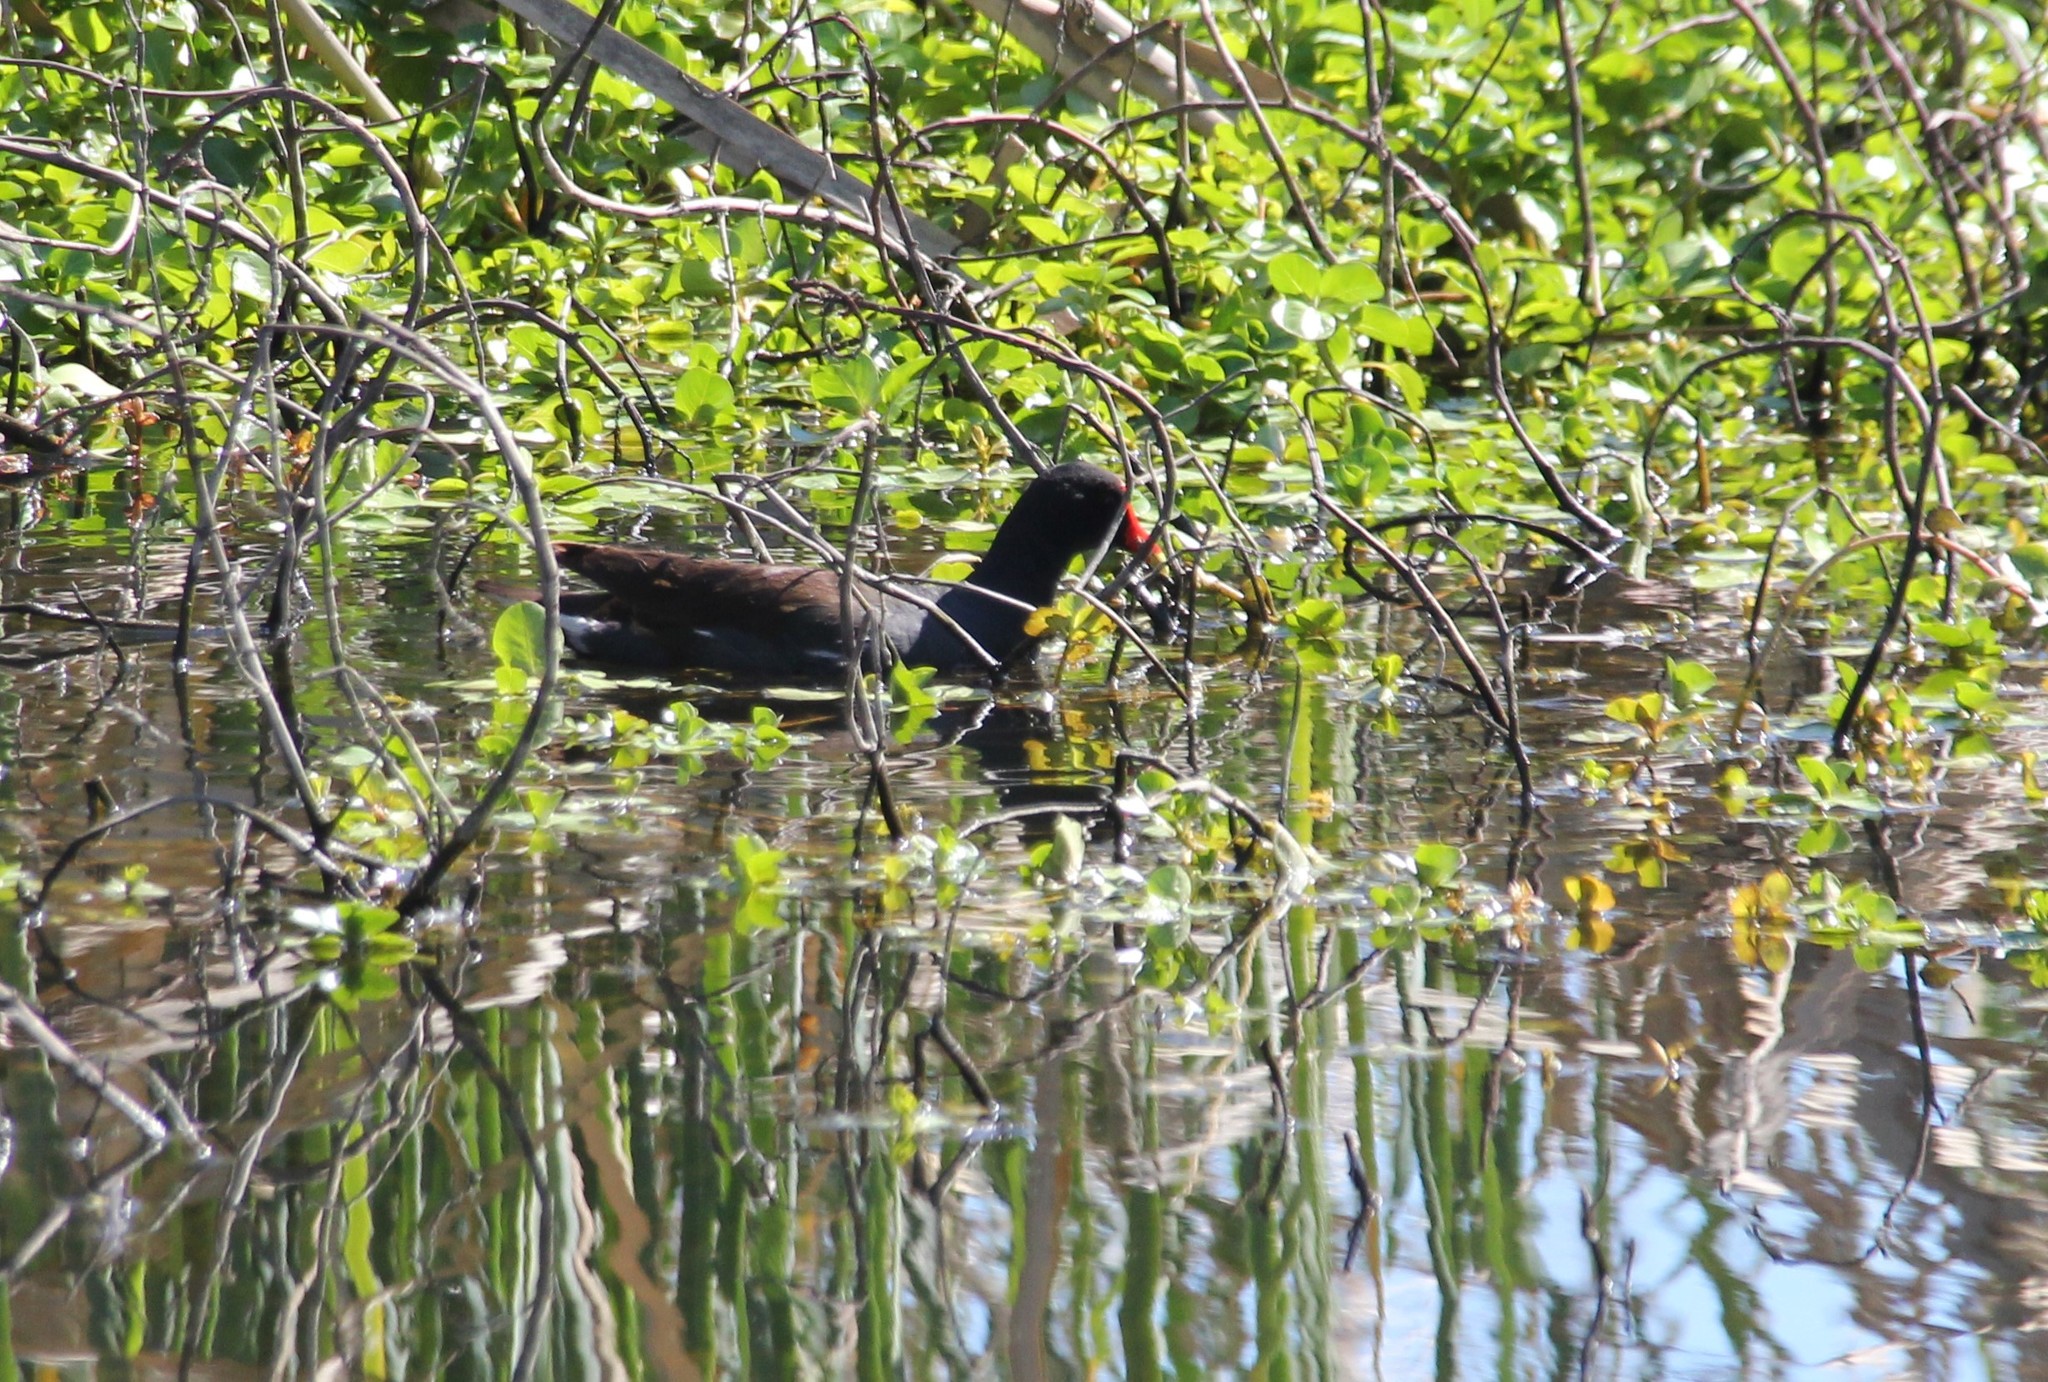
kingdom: Animalia
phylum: Chordata
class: Aves
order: Gruiformes
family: Rallidae
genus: Gallinula
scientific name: Gallinula chloropus
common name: Common moorhen
